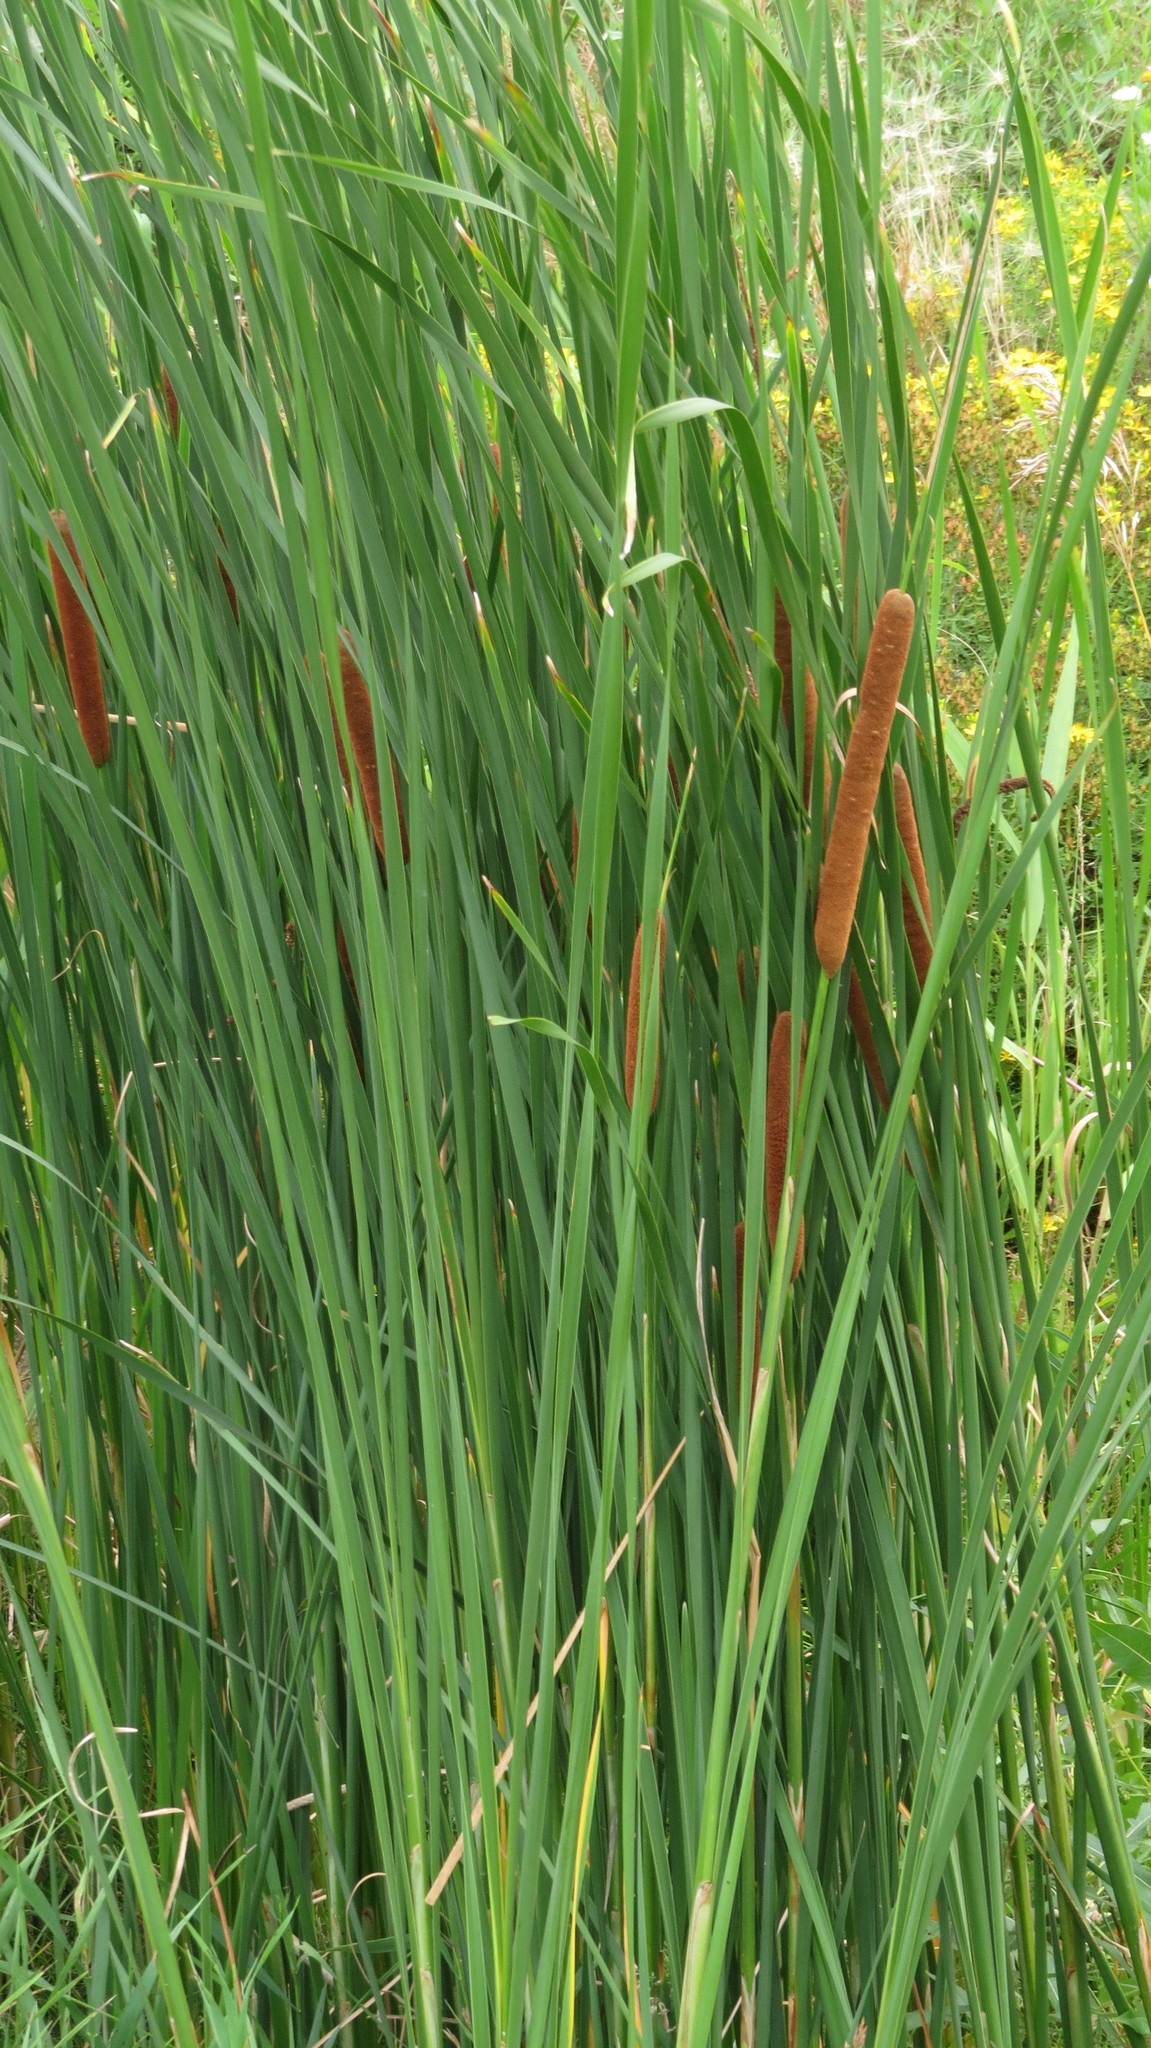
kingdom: Plantae
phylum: Tracheophyta
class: Liliopsida
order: Poales
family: Typhaceae
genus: Typha
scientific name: Typha angustifolia
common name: Lesser bulrush
